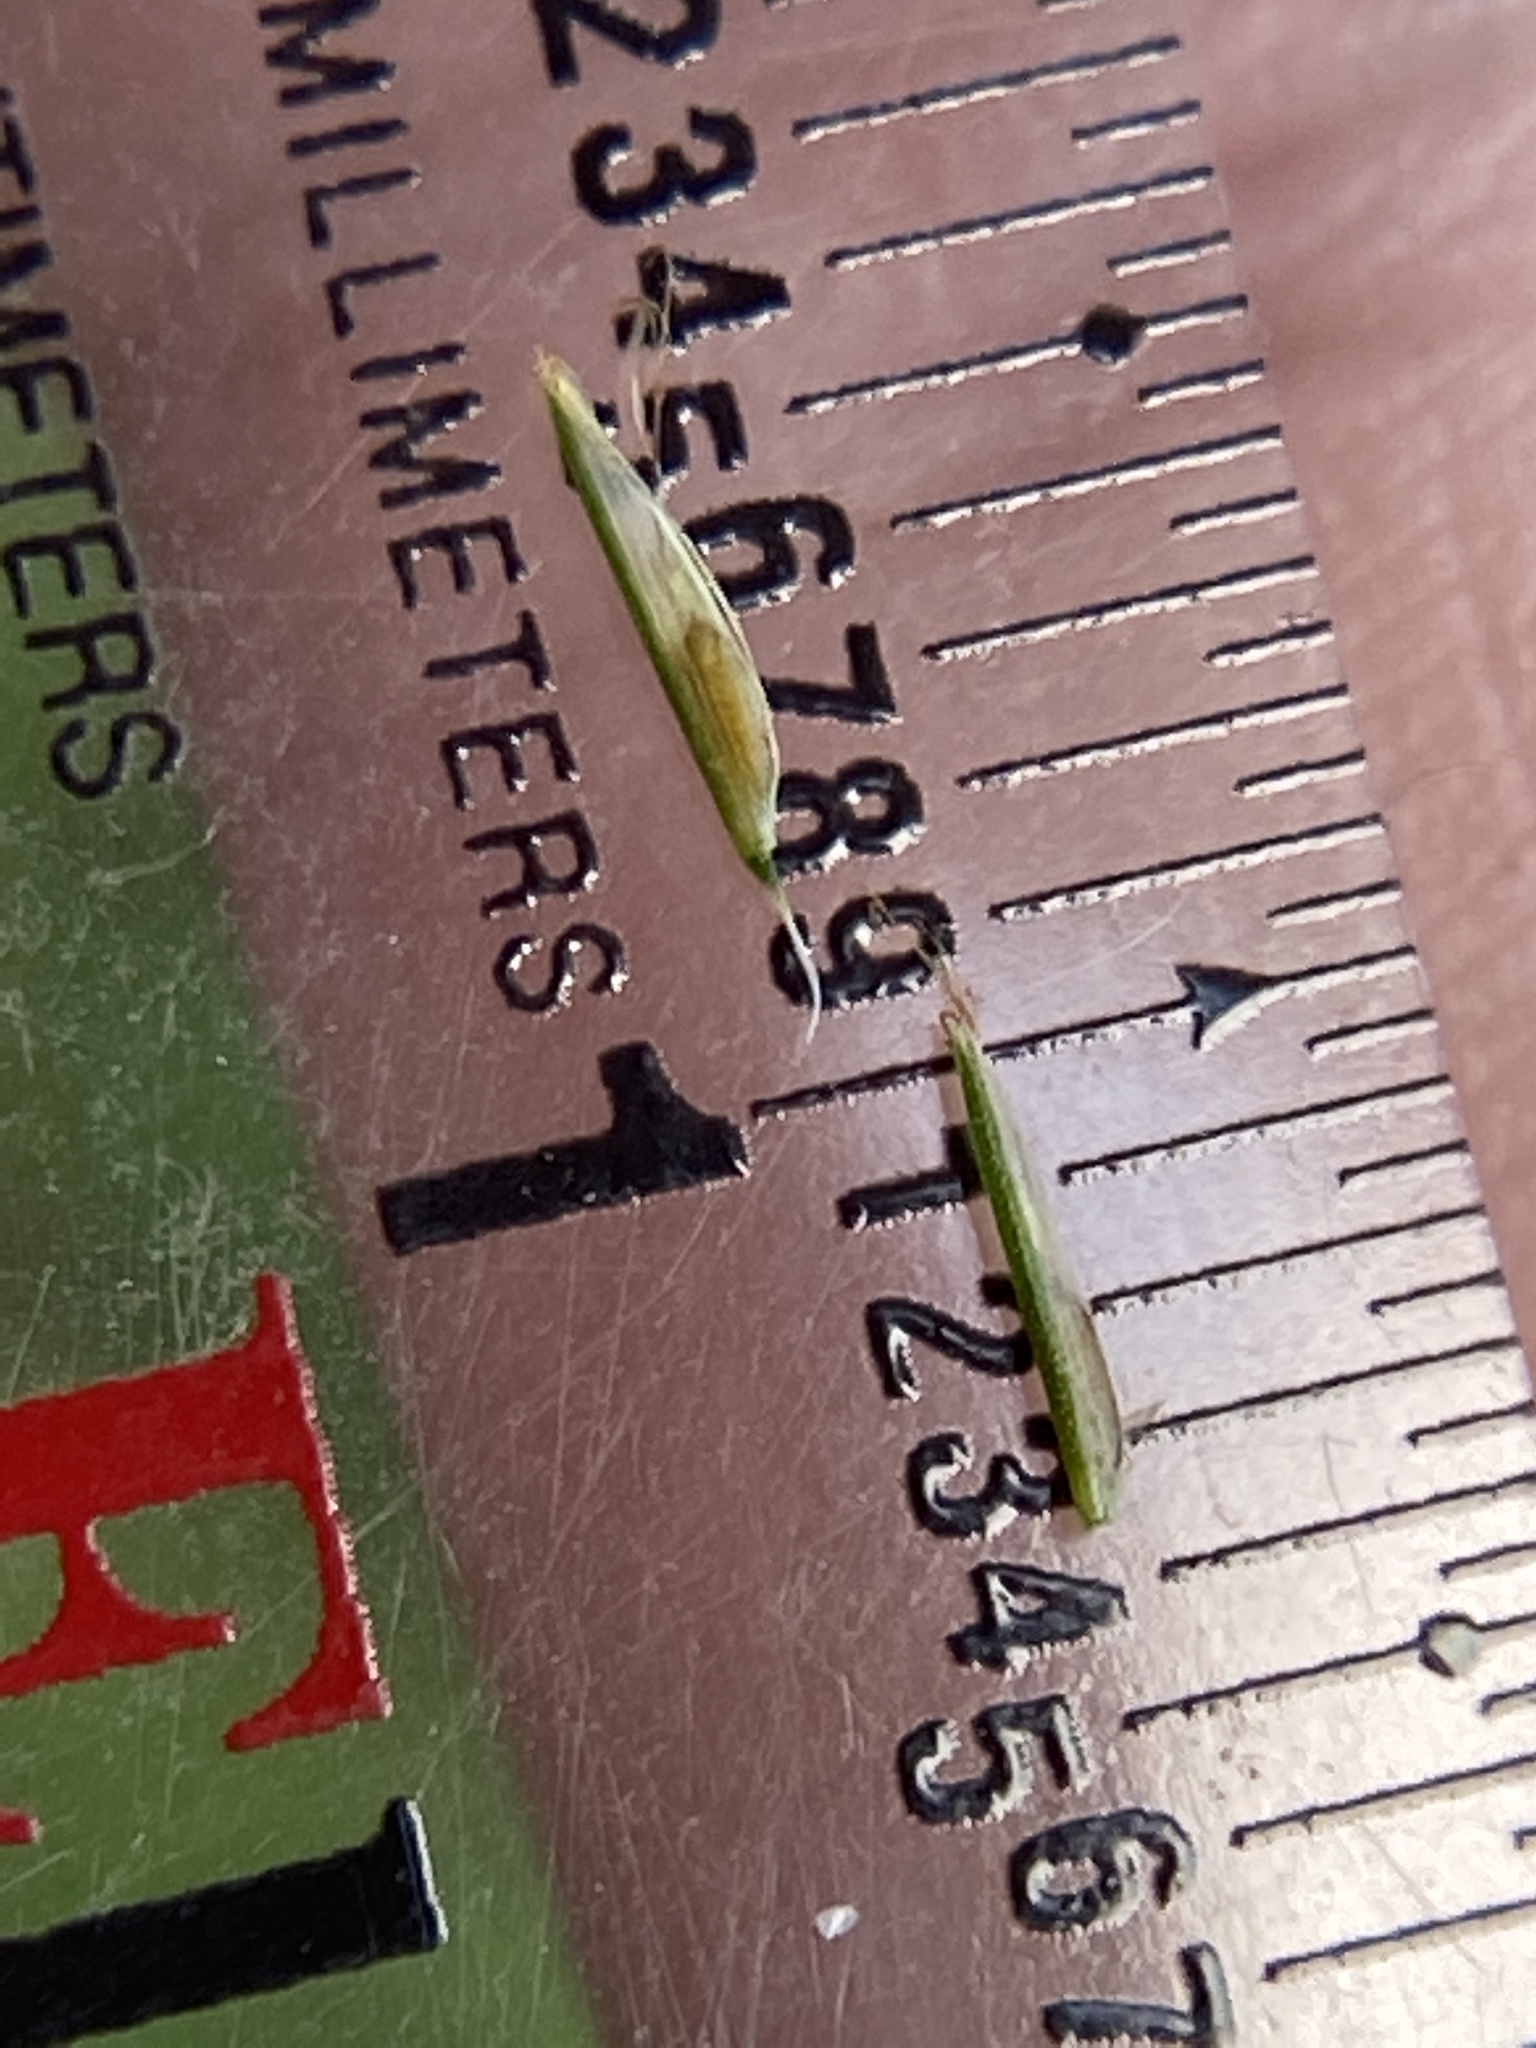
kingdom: Plantae
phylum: Tracheophyta
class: Liliopsida
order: Poales
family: Cyperaceae
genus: Cyperus
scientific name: Cyperus strigosus
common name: False nutsedge
